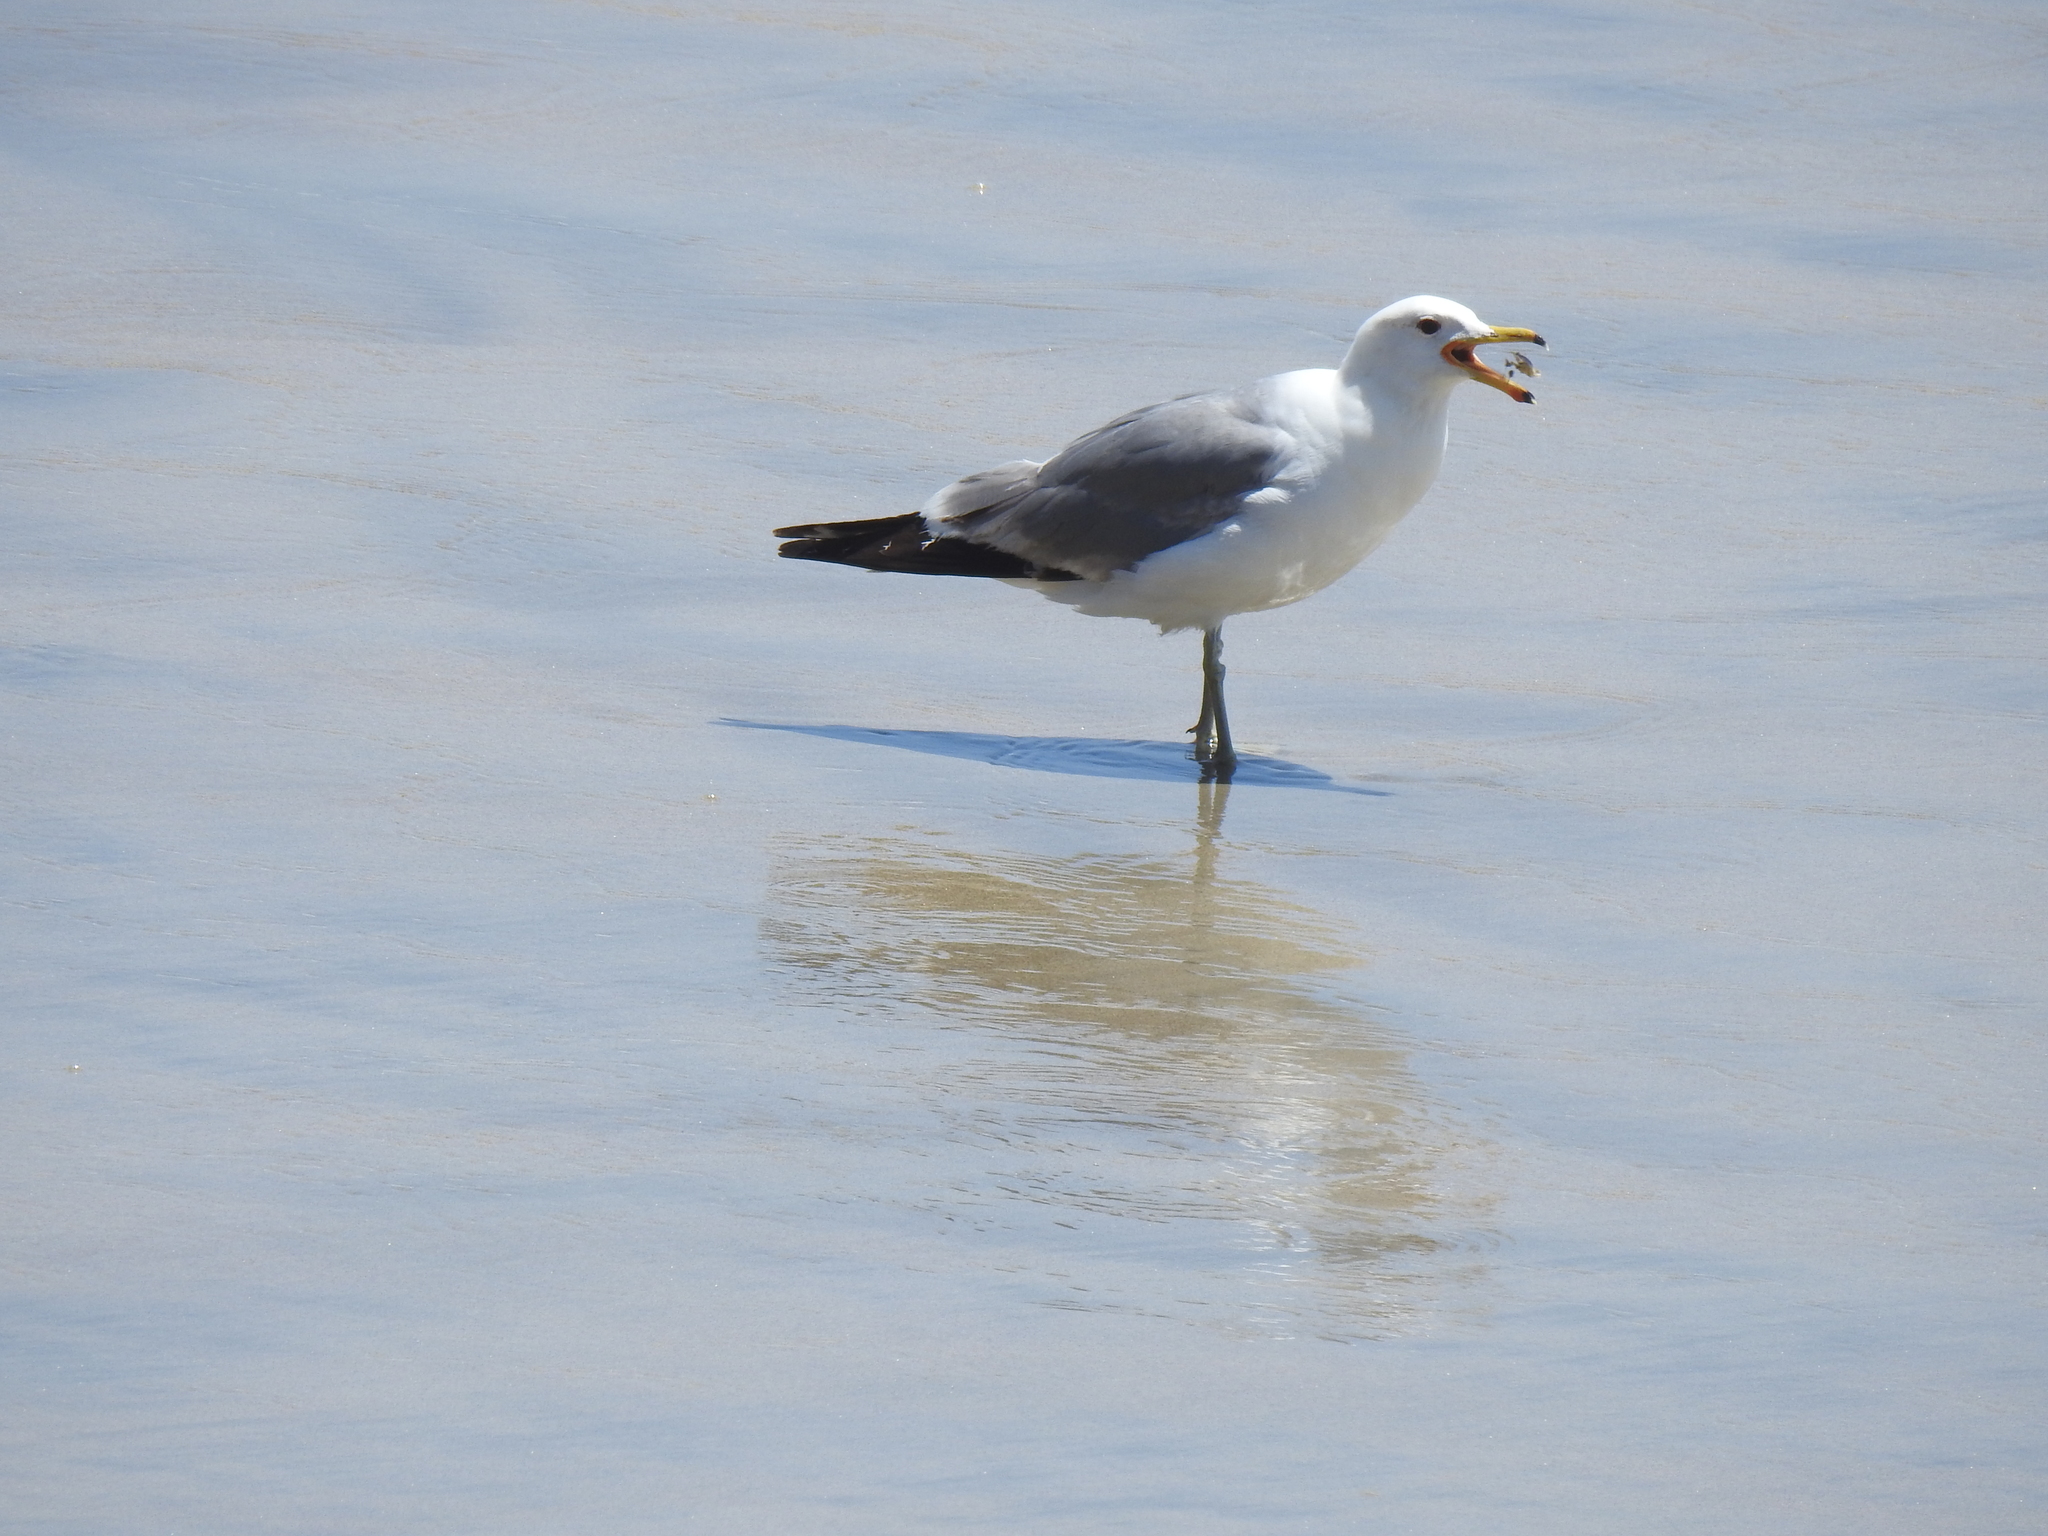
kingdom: Animalia
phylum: Chordata
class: Aves
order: Charadriiformes
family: Laridae
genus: Larus
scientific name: Larus californicus
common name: California gull
